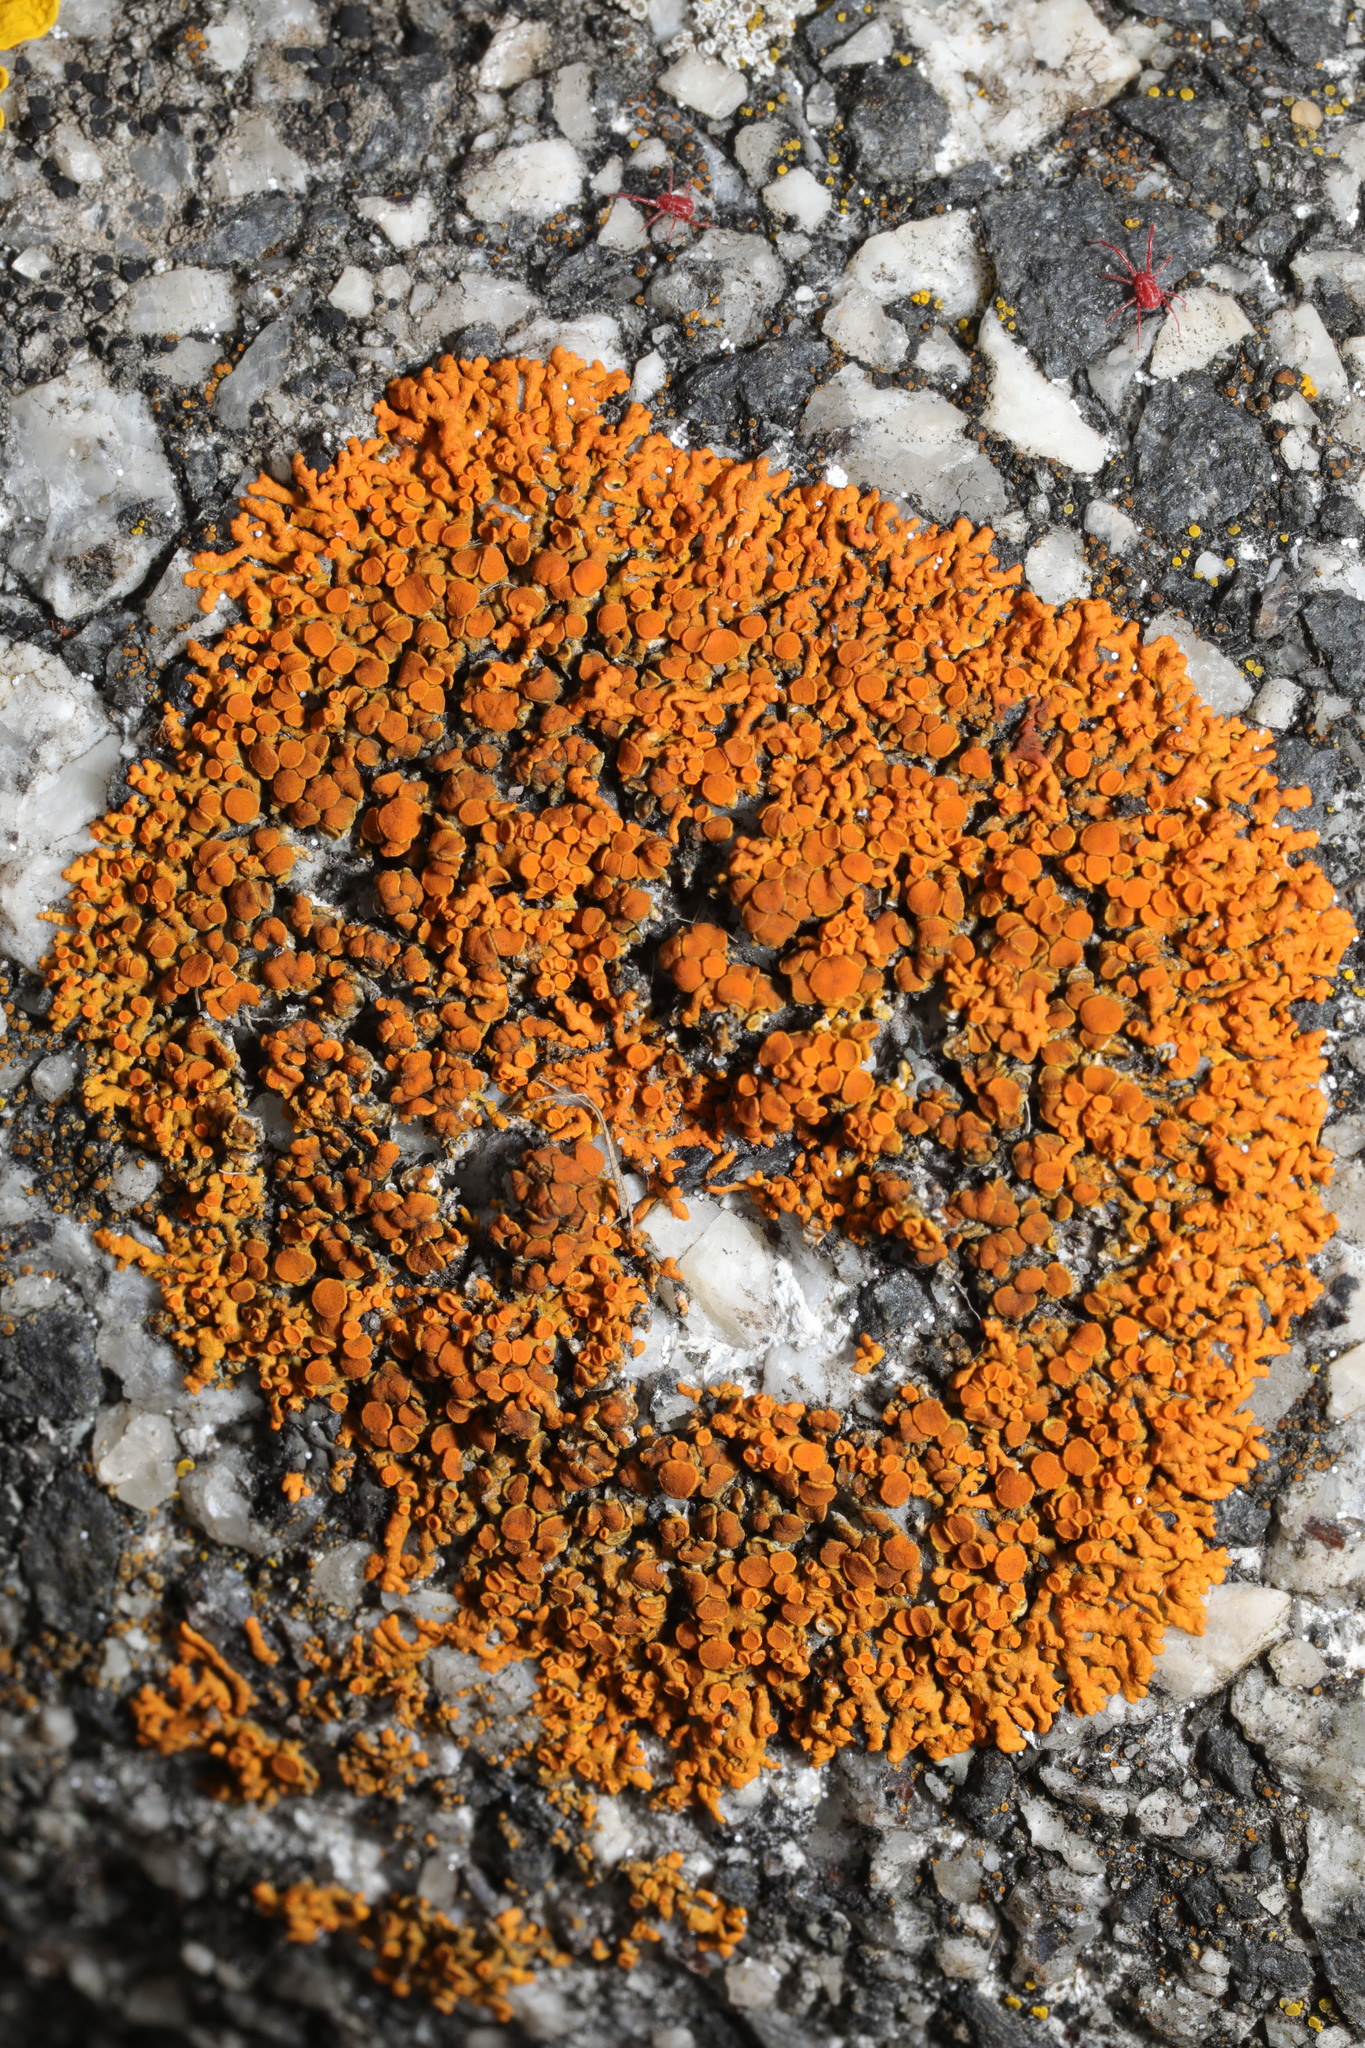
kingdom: Fungi
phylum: Ascomycota
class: Lecanoromycetes
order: Teloschistales
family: Teloschistaceae
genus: Xanthoria
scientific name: Xanthoria elegans
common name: Elegant sunburst lichen
